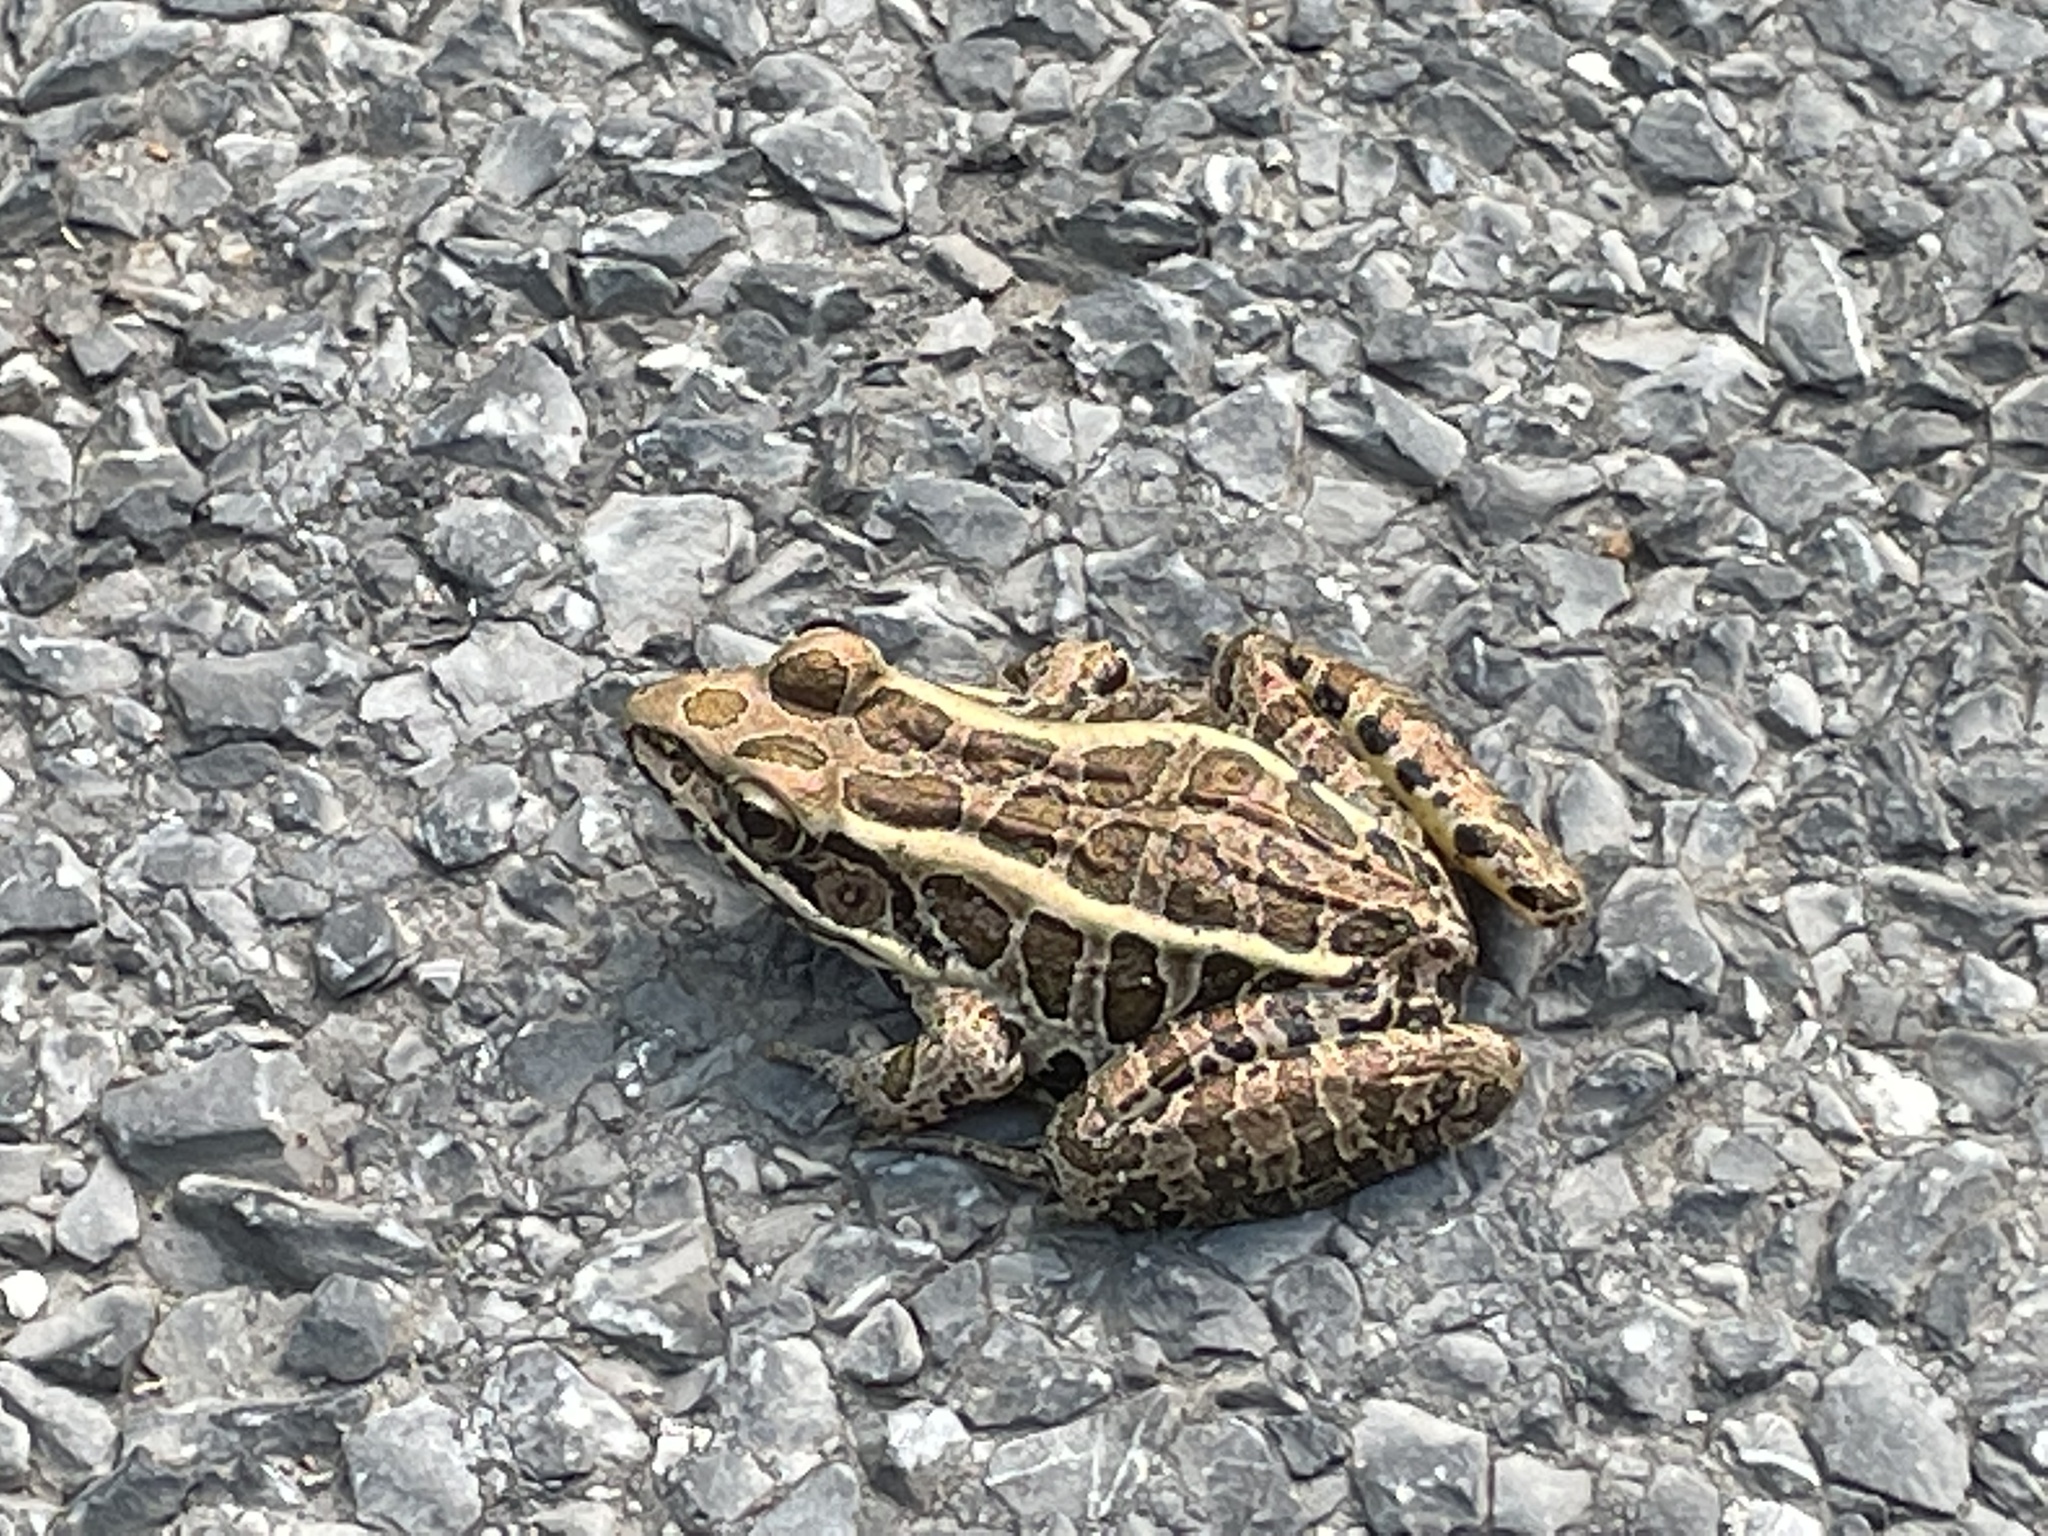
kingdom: Animalia
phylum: Chordata
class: Amphibia
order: Anura
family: Ranidae
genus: Lithobates
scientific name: Lithobates palustris
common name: Pickerel frog
